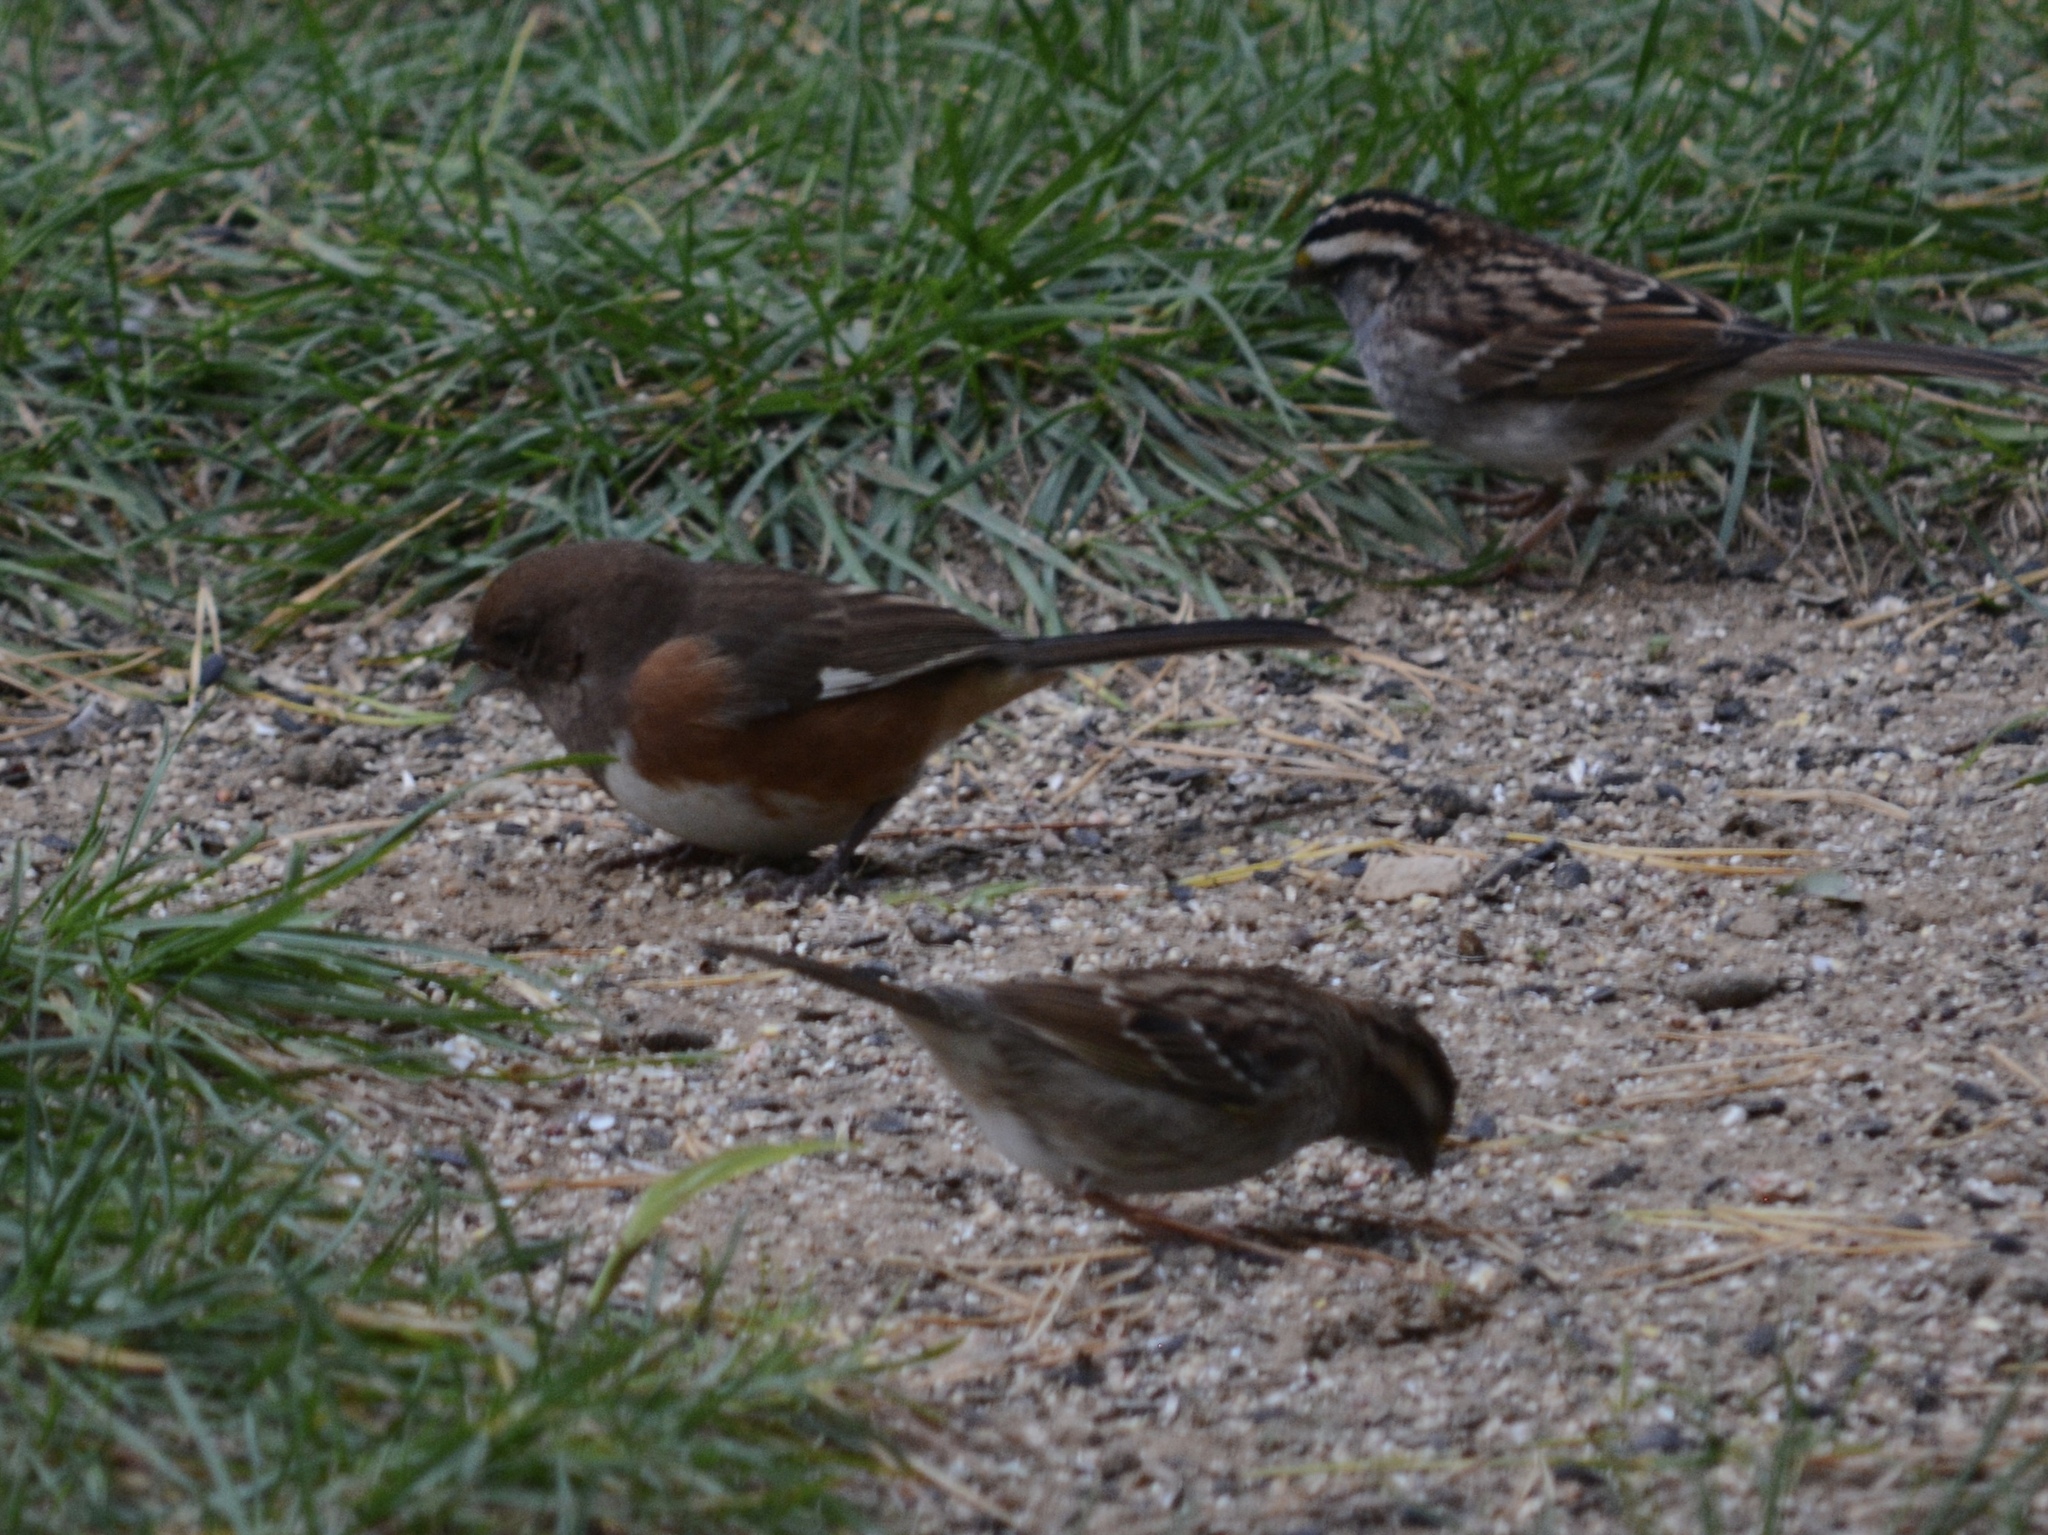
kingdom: Animalia
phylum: Chordata
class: Aves
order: Passeriformes
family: Passerellidae
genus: Pipilo
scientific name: Pipilo erythrophthalmus
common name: Eastern towhee
